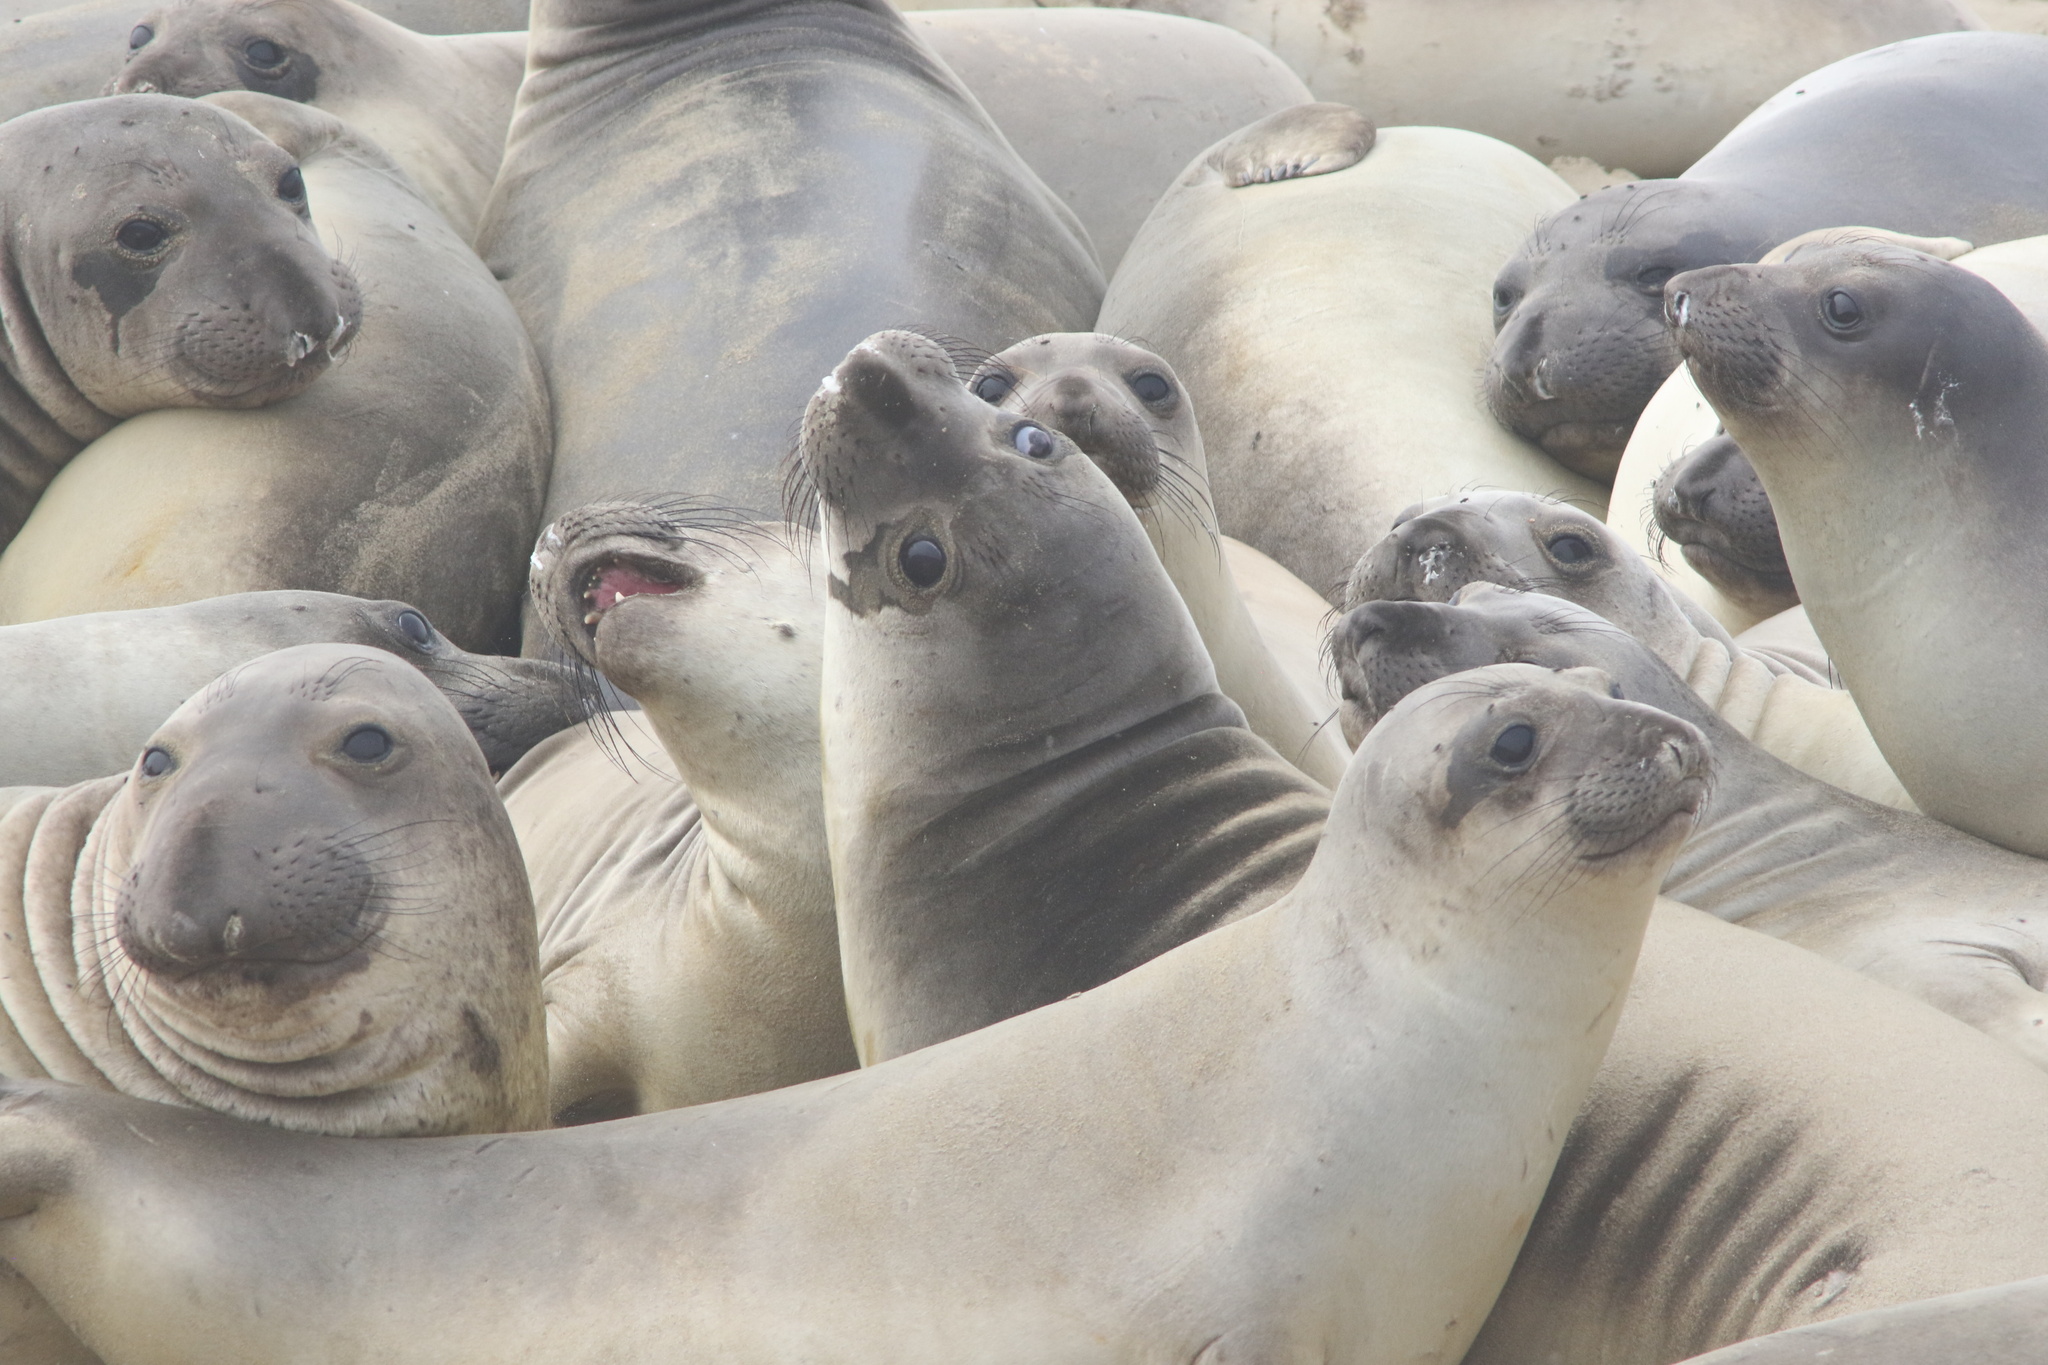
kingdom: Animalia
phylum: Chordata
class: Mammalia
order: Carnivora
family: Phocidae
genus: Mirounga
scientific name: Mirounga angustirostris
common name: Northern elephant seal
